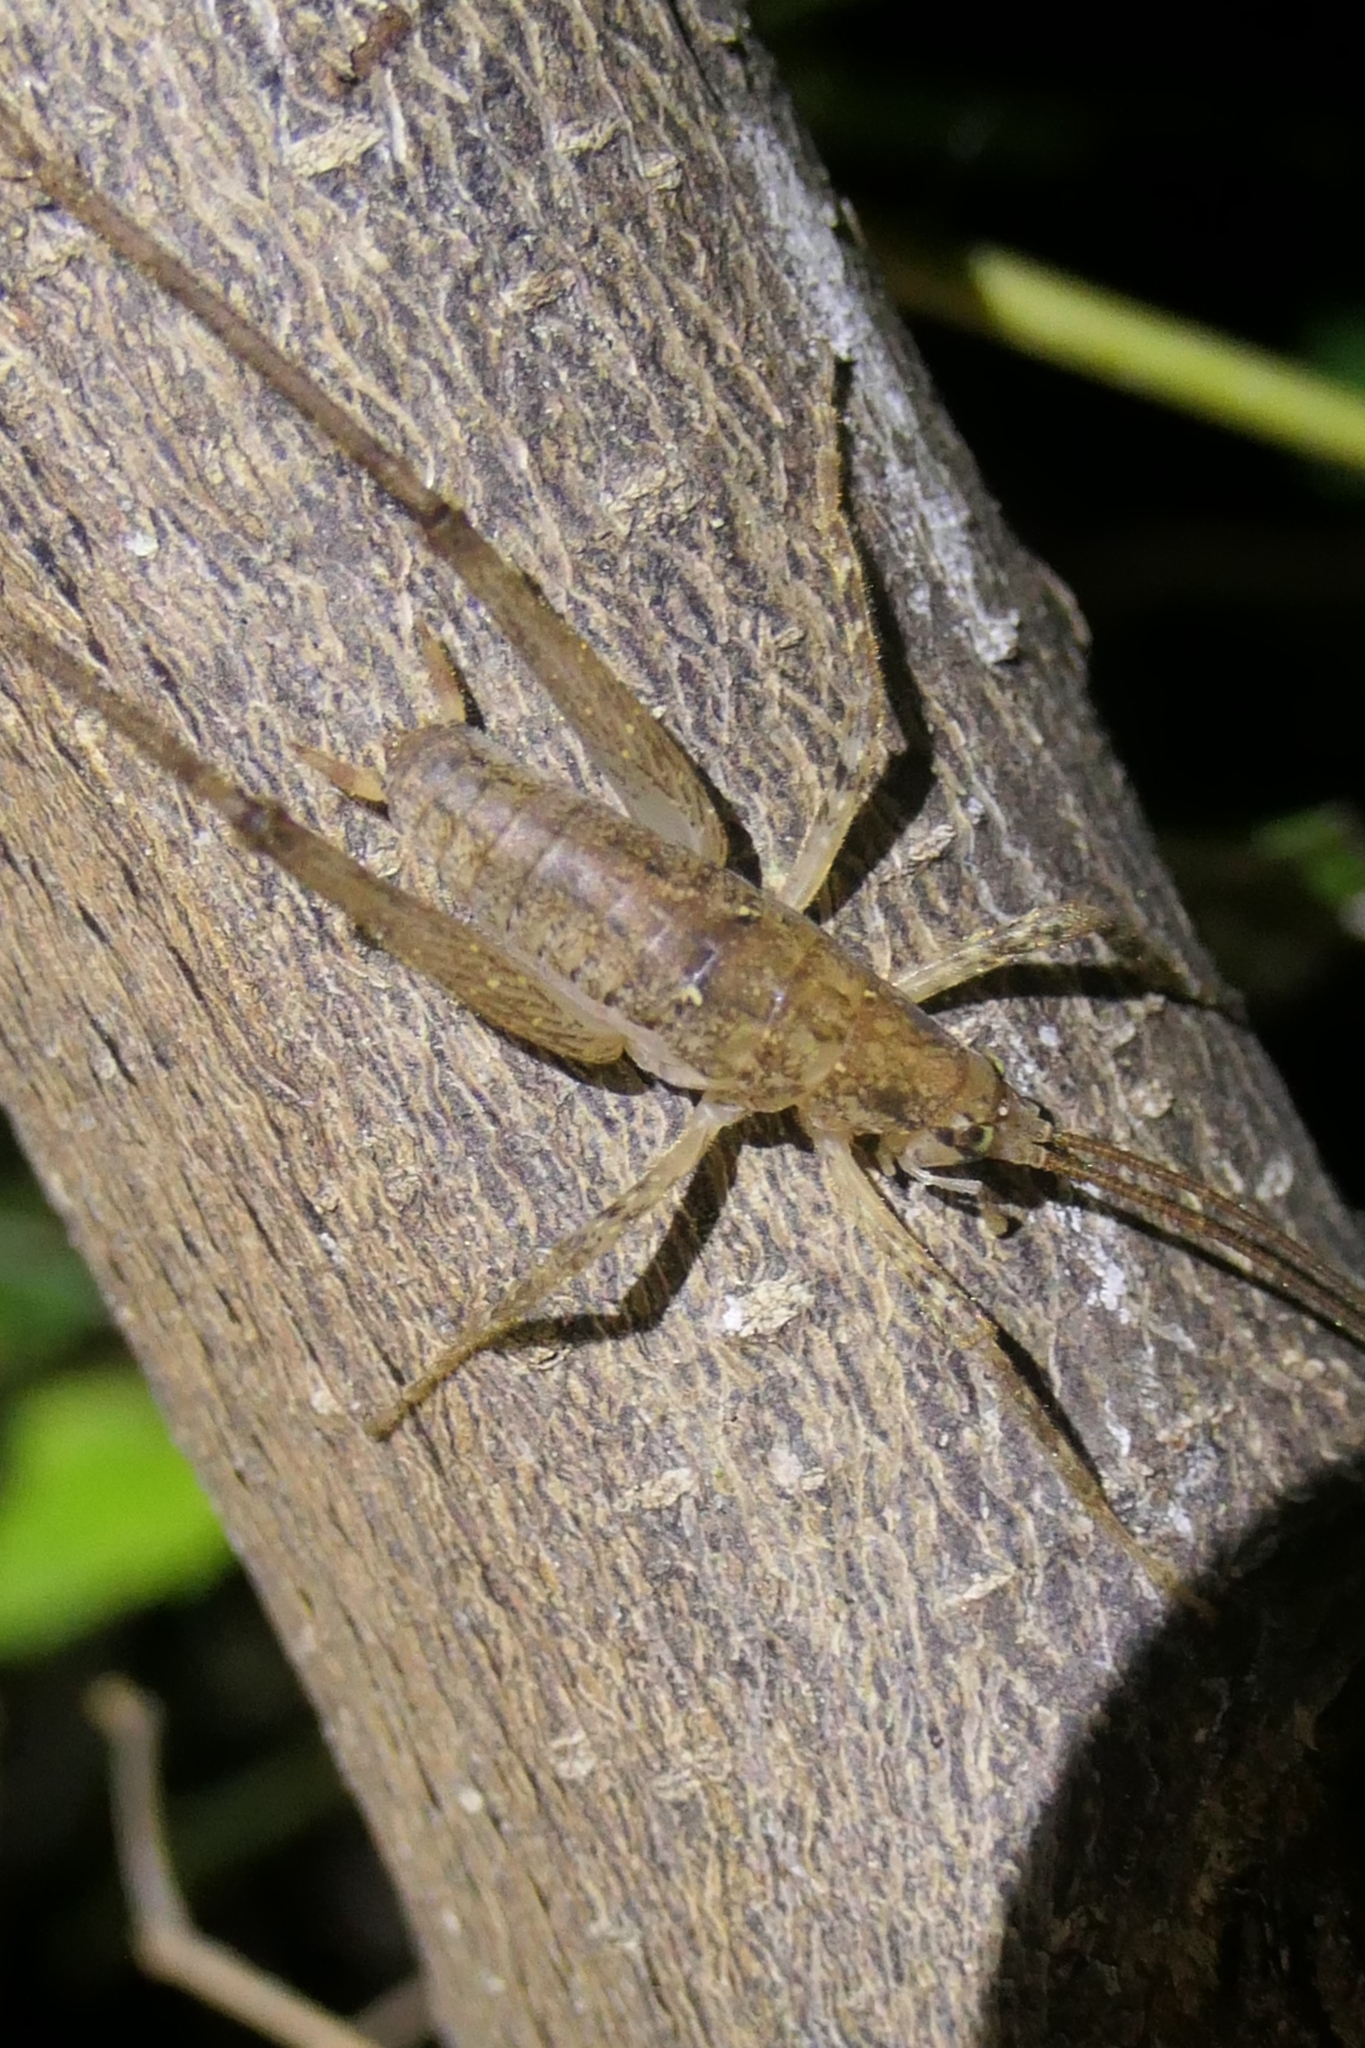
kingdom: Animalia
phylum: Arthropoda
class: Insecta
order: Orthoptera
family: Rhaphidophoridae
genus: Isoplectron
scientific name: Isoplectron armatum
